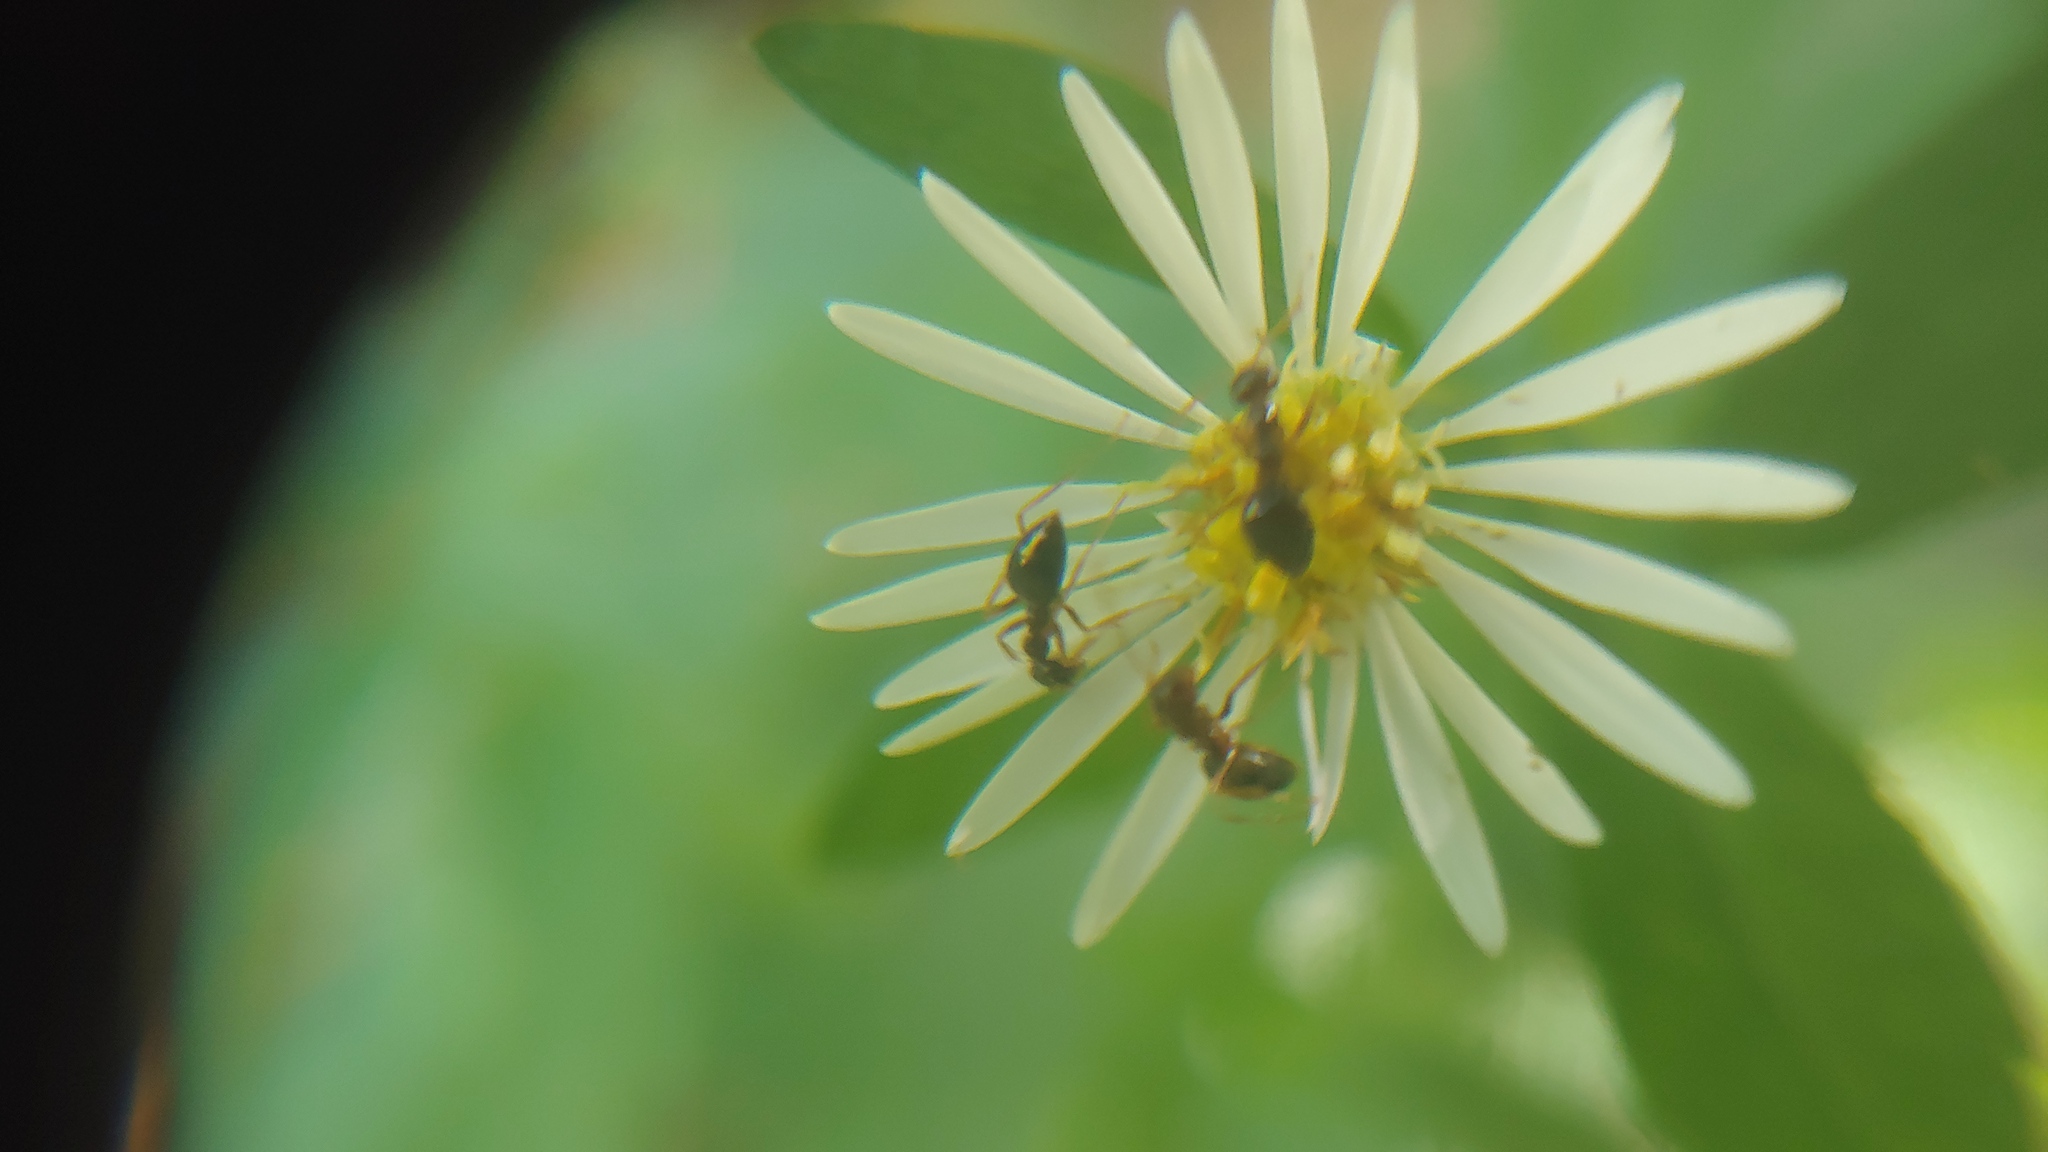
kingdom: Animalia
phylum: Arthropoda
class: Insecta
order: Hymenoptera
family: Formicidae
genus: Prenolepis
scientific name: Prenolepis imparis
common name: Small honey ant
